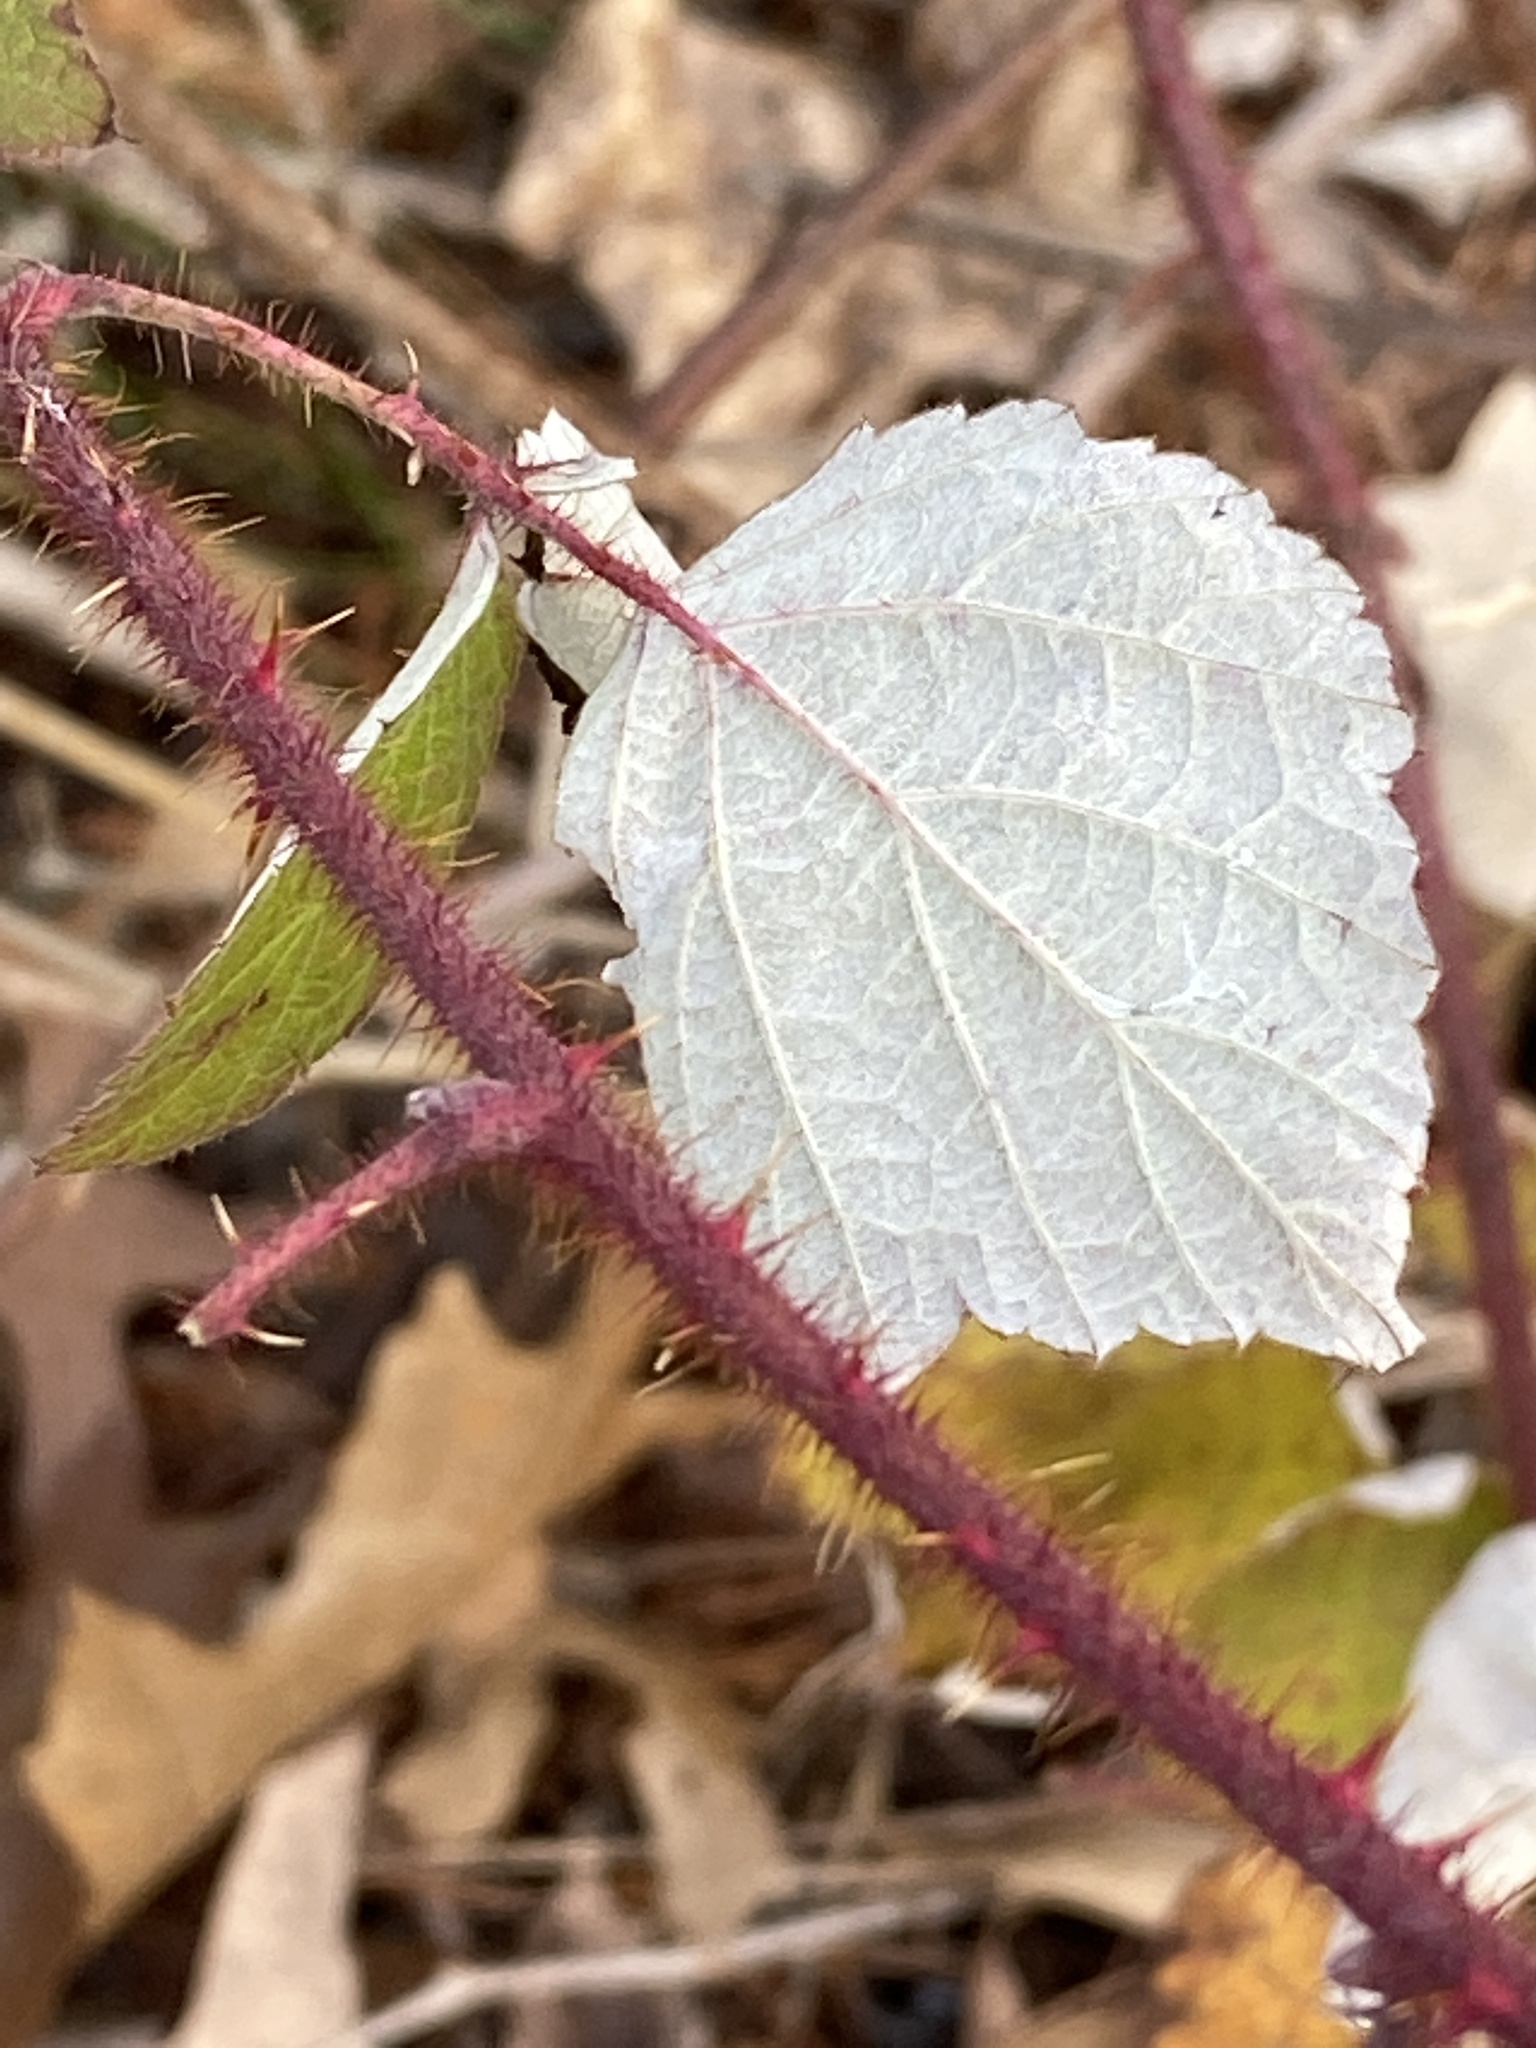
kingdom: Plantae
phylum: Tracheophyta
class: Magnoliopsida
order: Rosales
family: Rosaceae
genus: Rubus
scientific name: Rubus phoenicolasius
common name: Japanese wineberry
